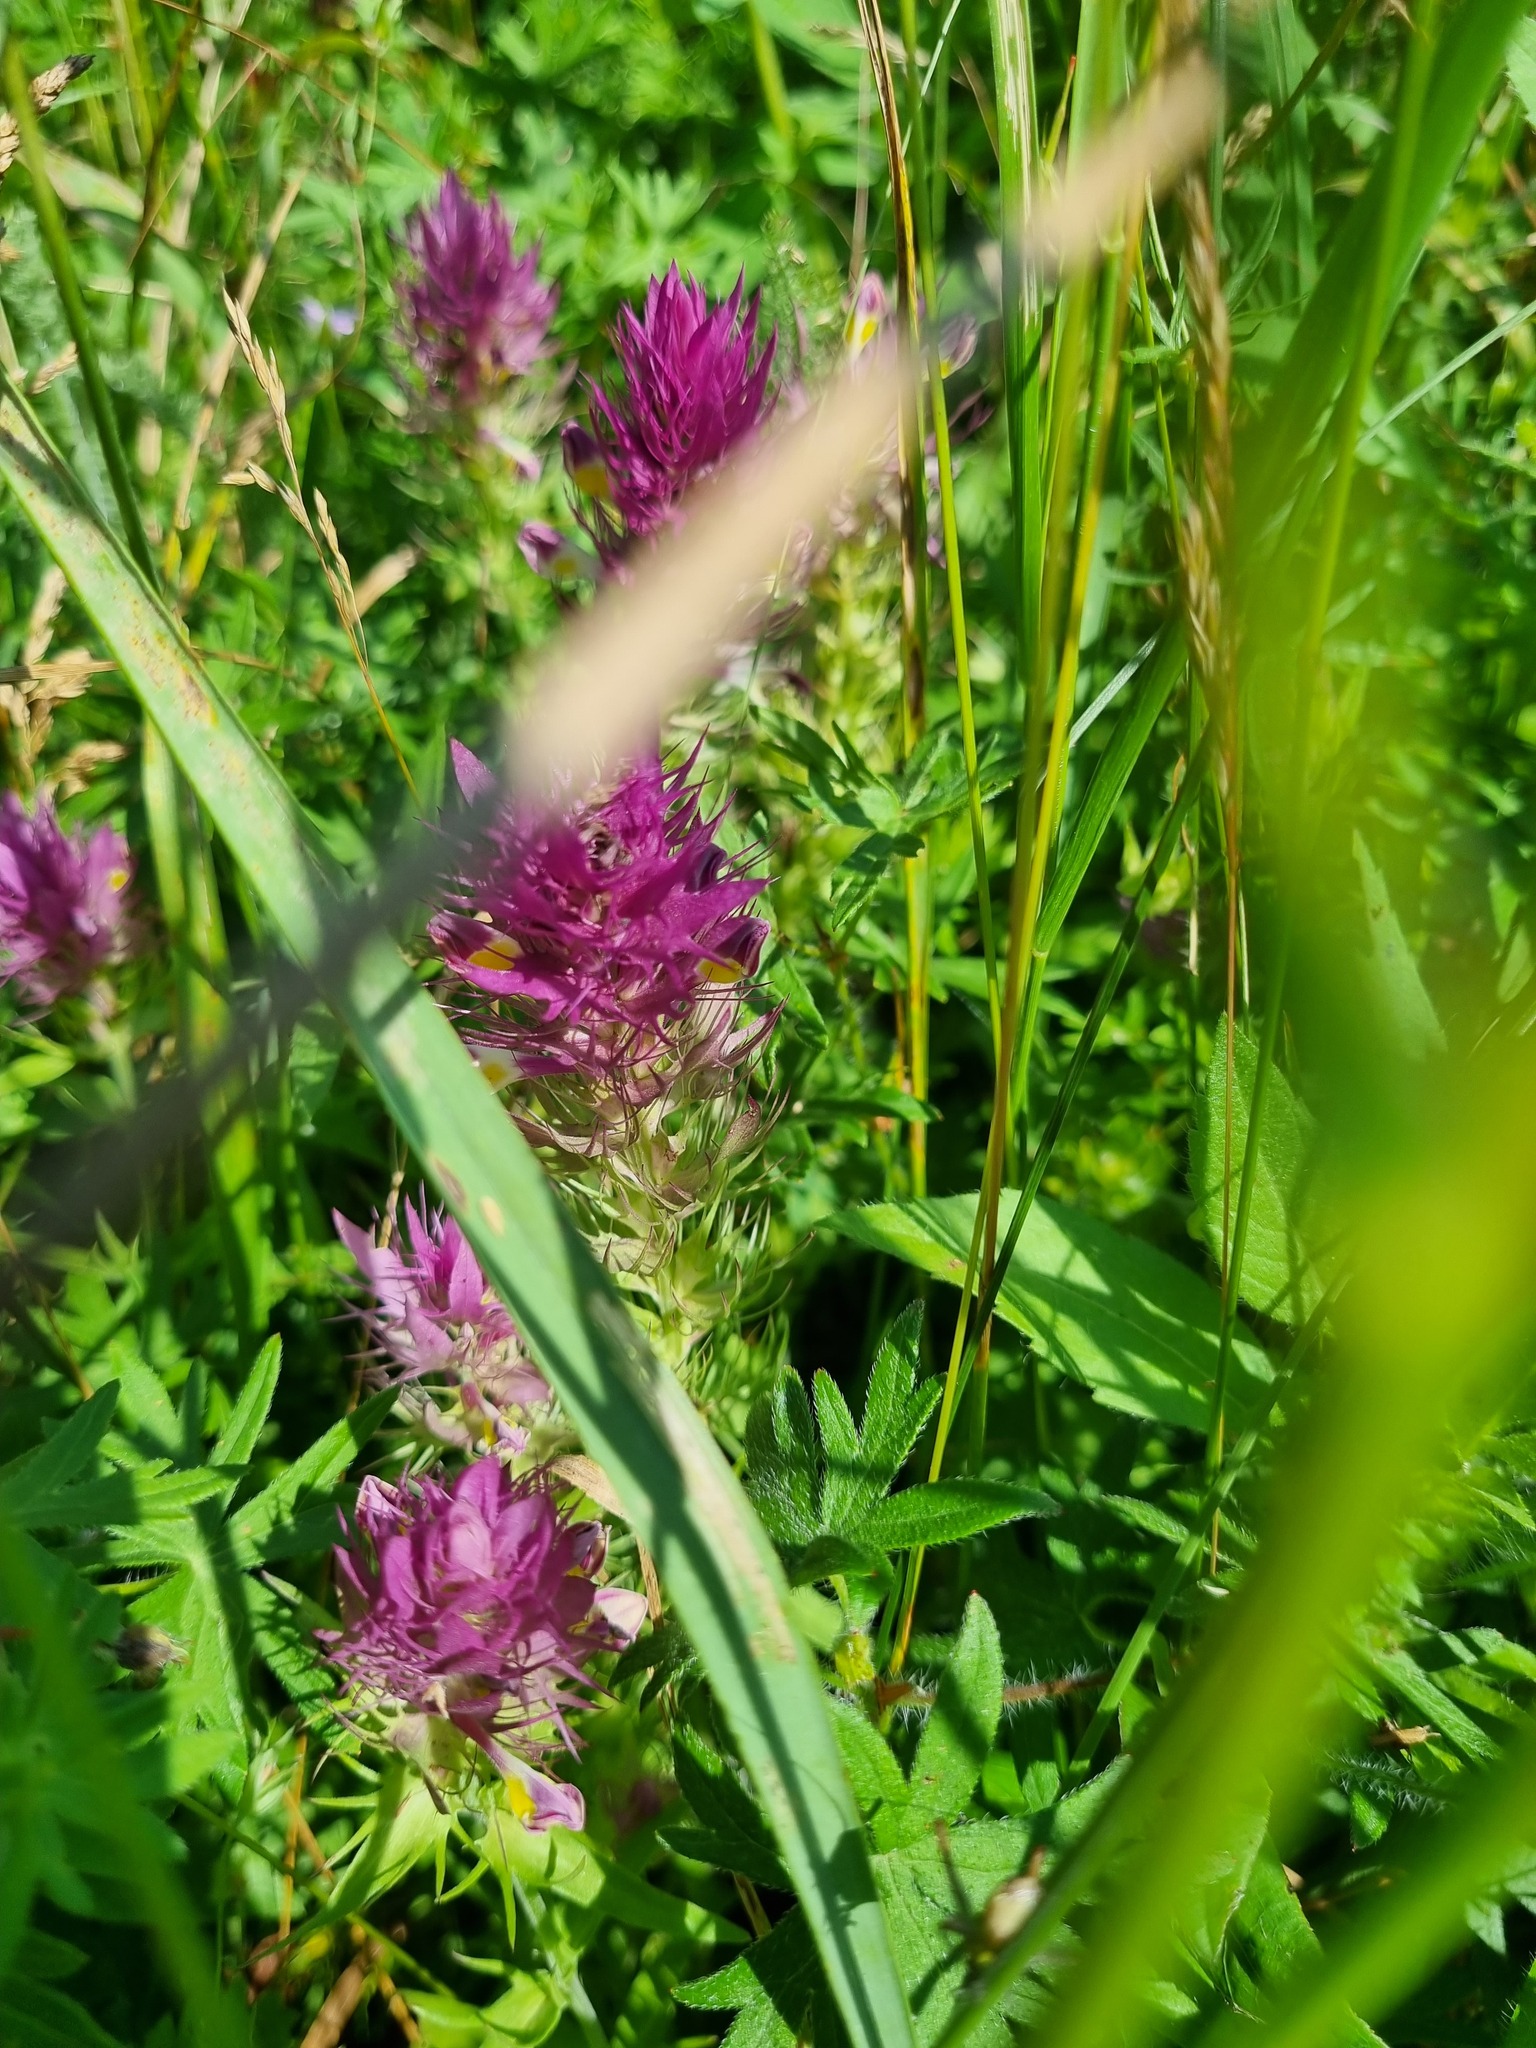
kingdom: Plantae
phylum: Tracheophyta
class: Magnoliopsida
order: Lamiales
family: Orobanchaceae
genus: Melampyrum
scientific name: Melampyrum arvense
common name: Field cow-wheat
